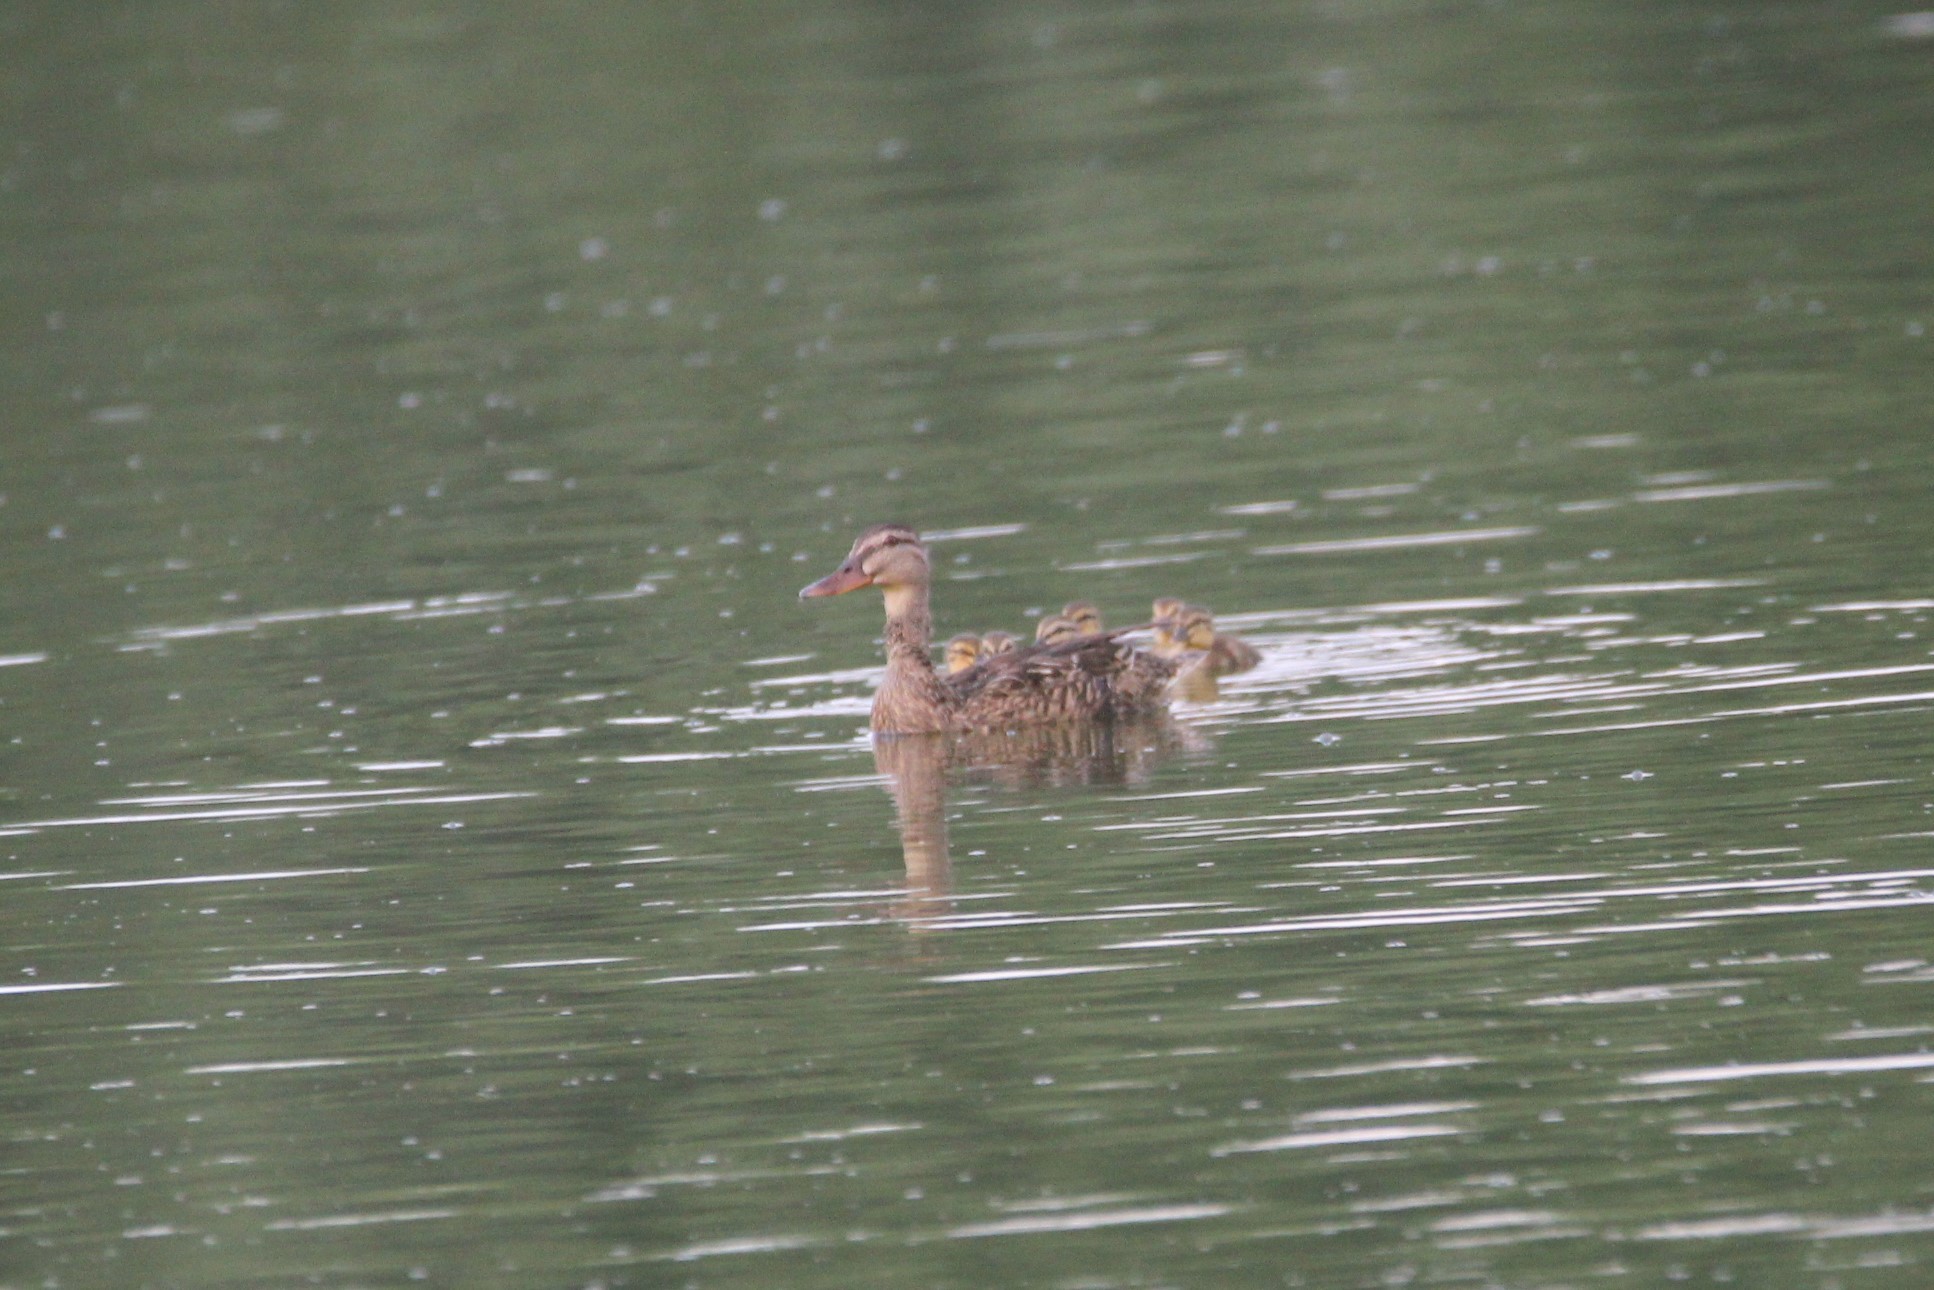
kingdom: Animalia
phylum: Chordata
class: Aves
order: Anseriformes
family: Anatidae
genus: Anas
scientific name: Anas platyrhynchos
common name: Mallard
